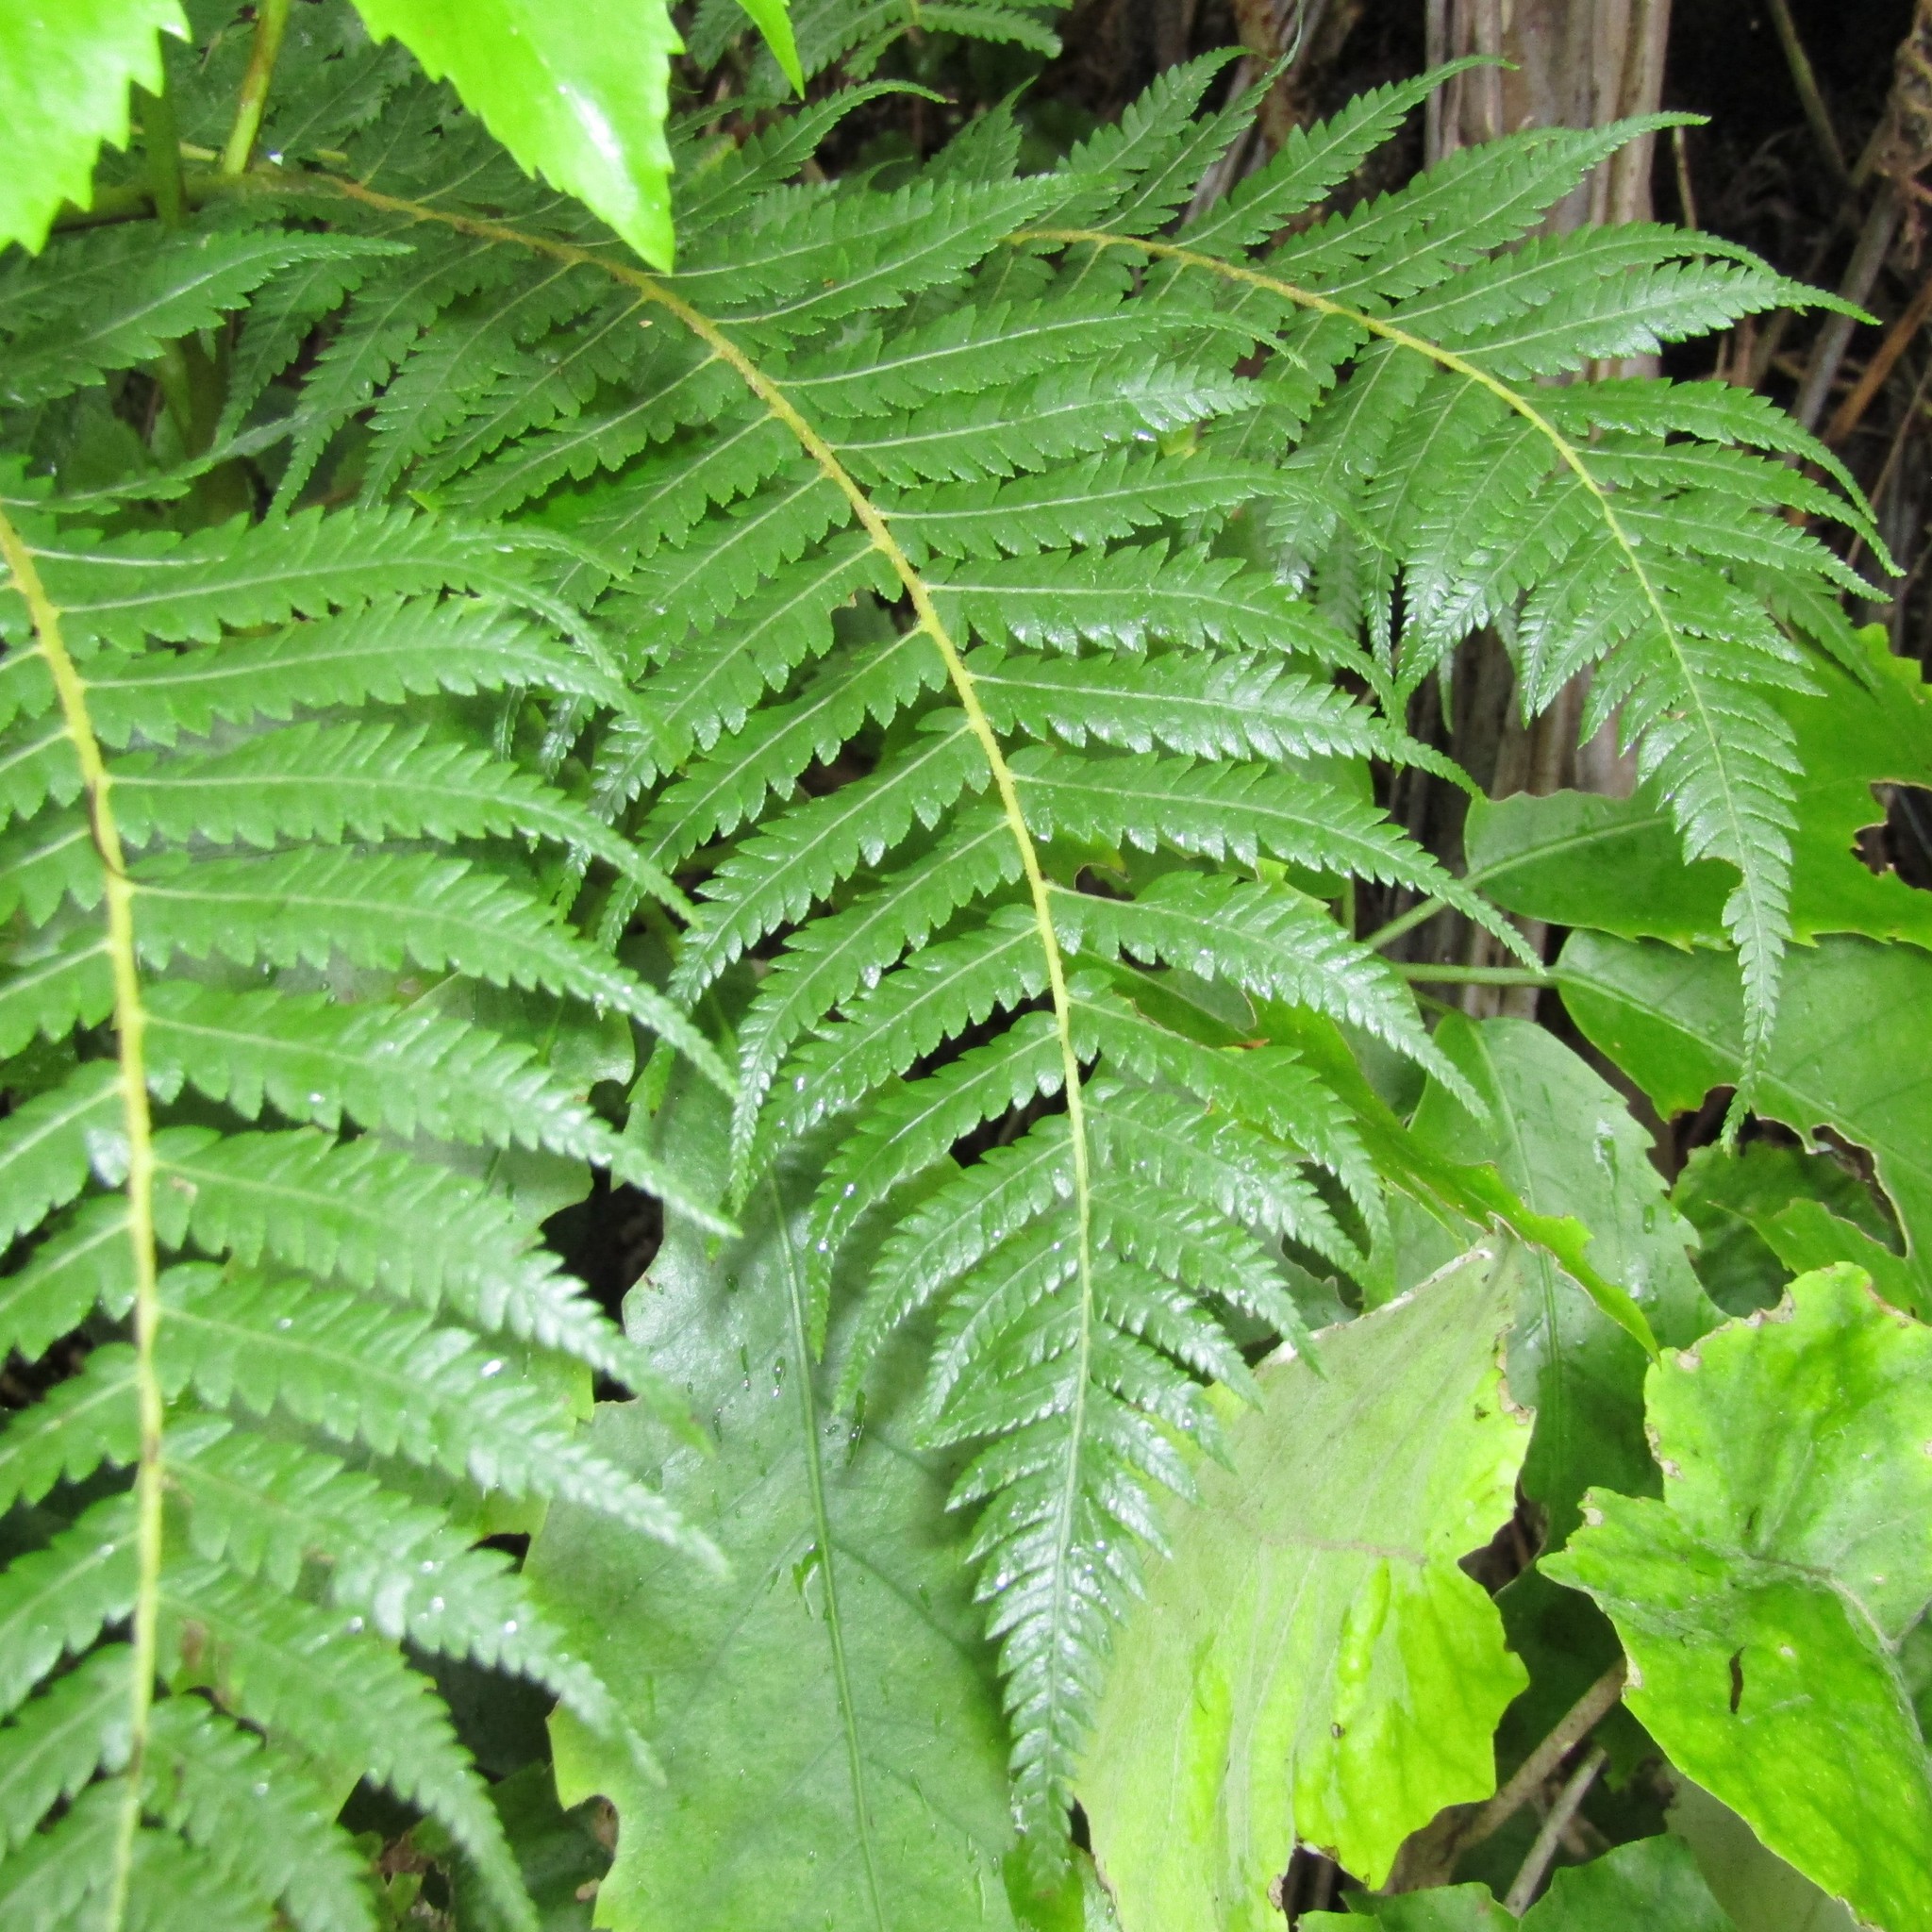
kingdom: Plantae
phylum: Tracheophyta
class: Polypodiopsida
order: Cyatheales
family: Cyatheaceae
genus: Alsophila
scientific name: Alsophila dealbata
